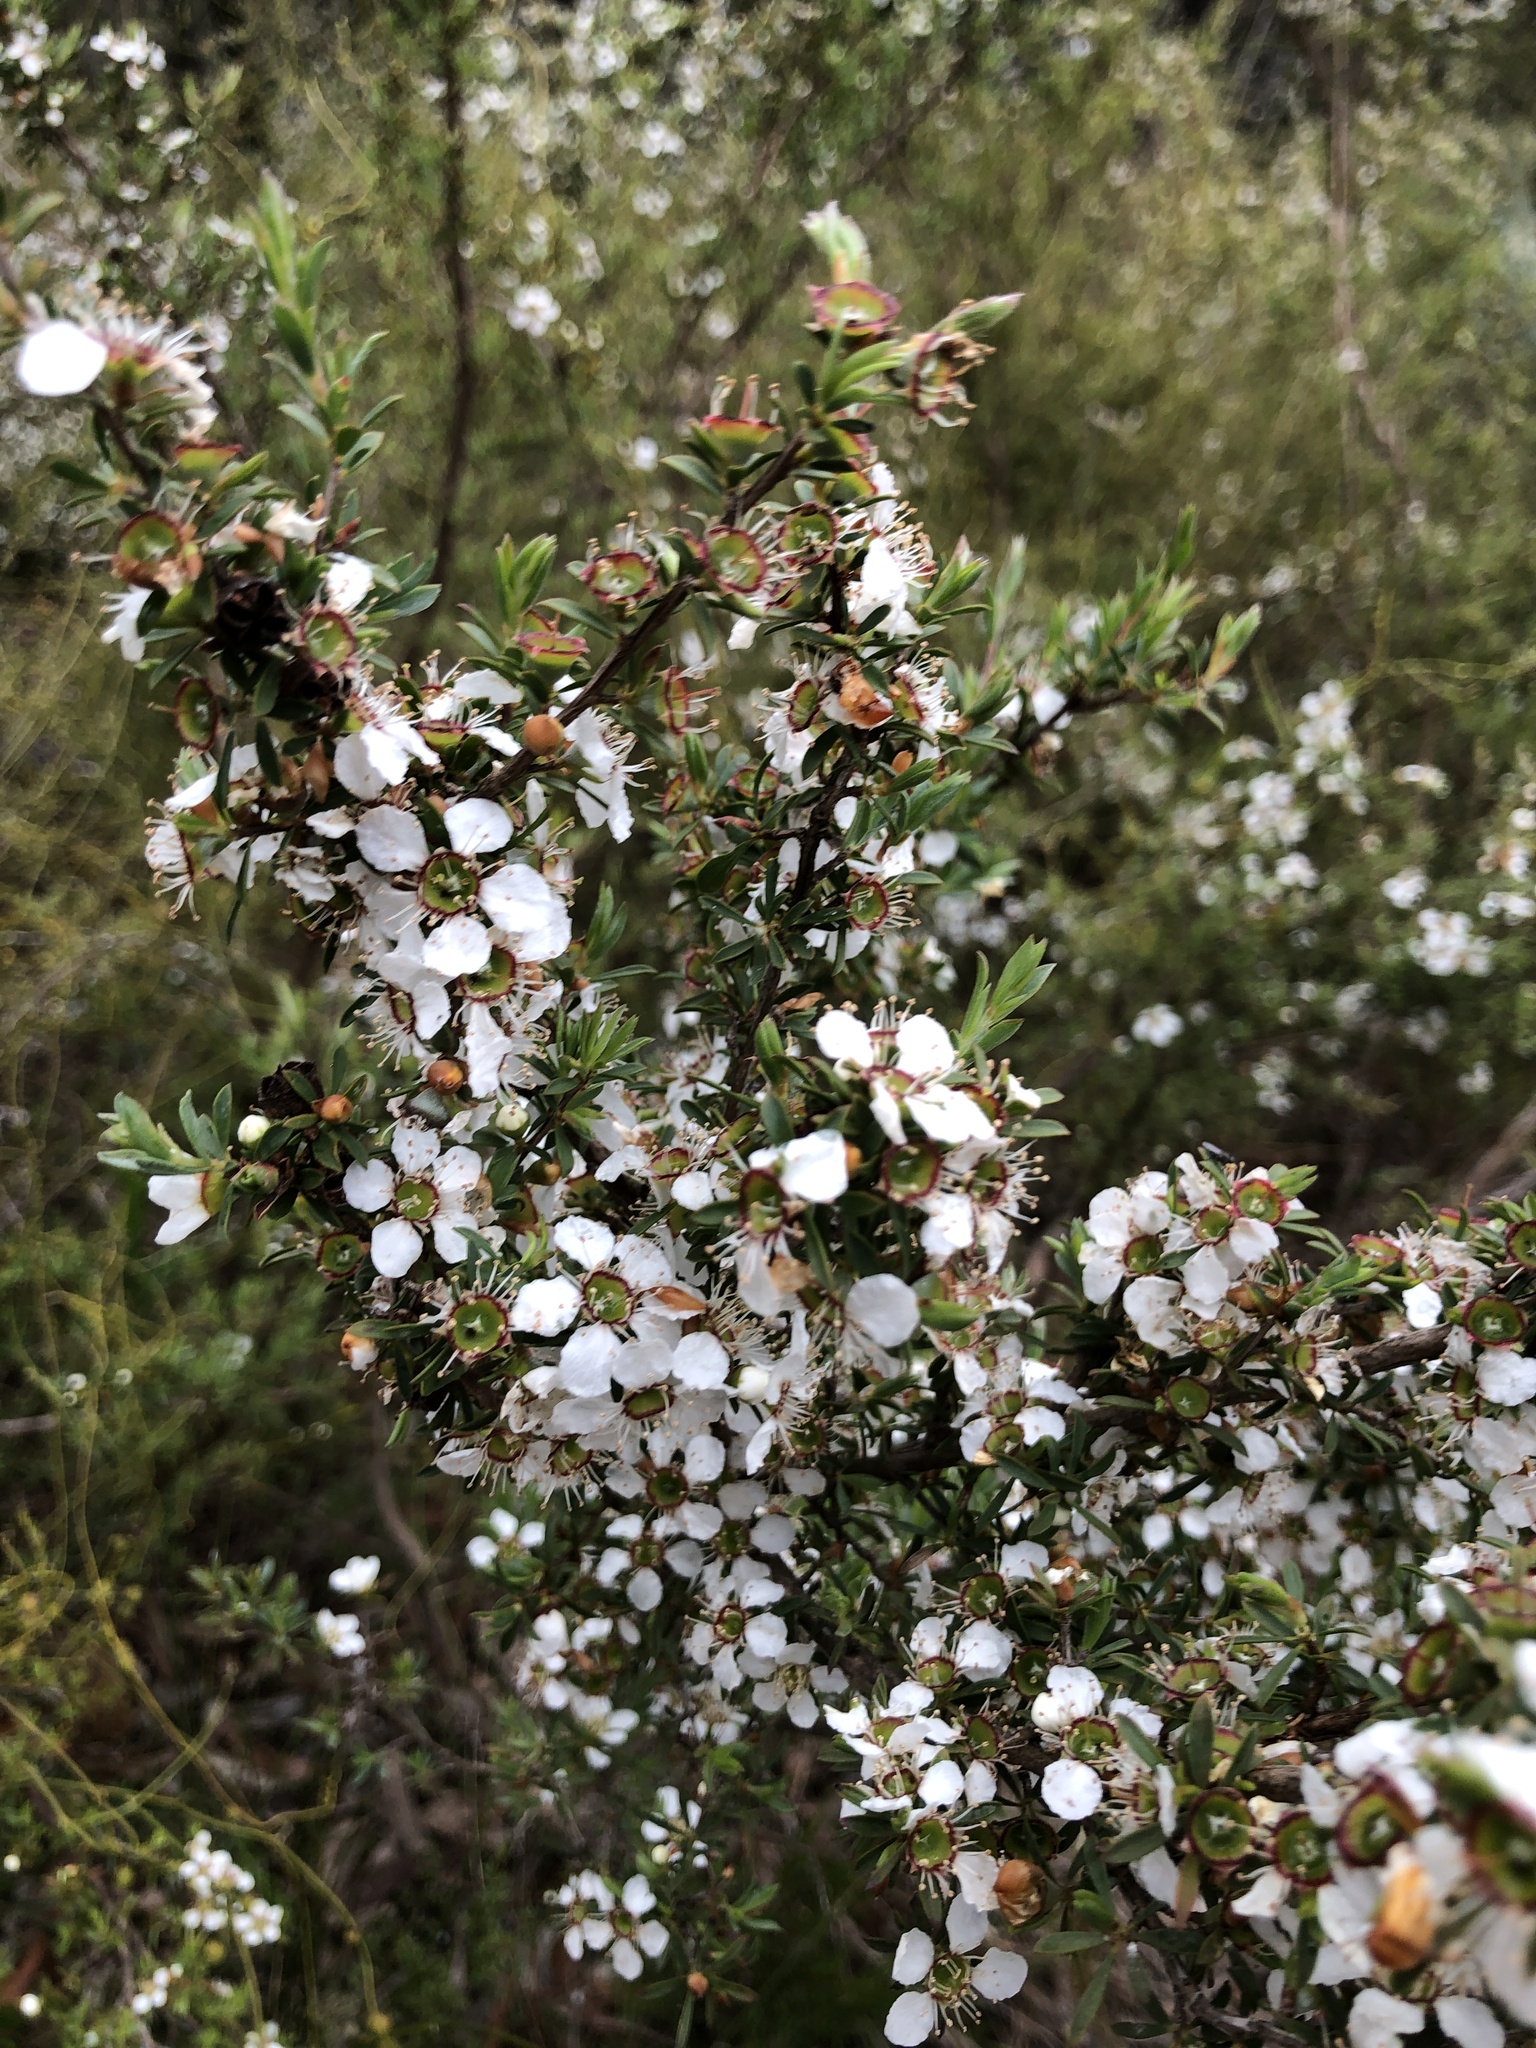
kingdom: Plantae
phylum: Tracheophyta
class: Magnoliopsida
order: Myrtales
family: Myrtaceae
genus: Leptospermum
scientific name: Leptospermum myrsinoides
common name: Heath teatree
